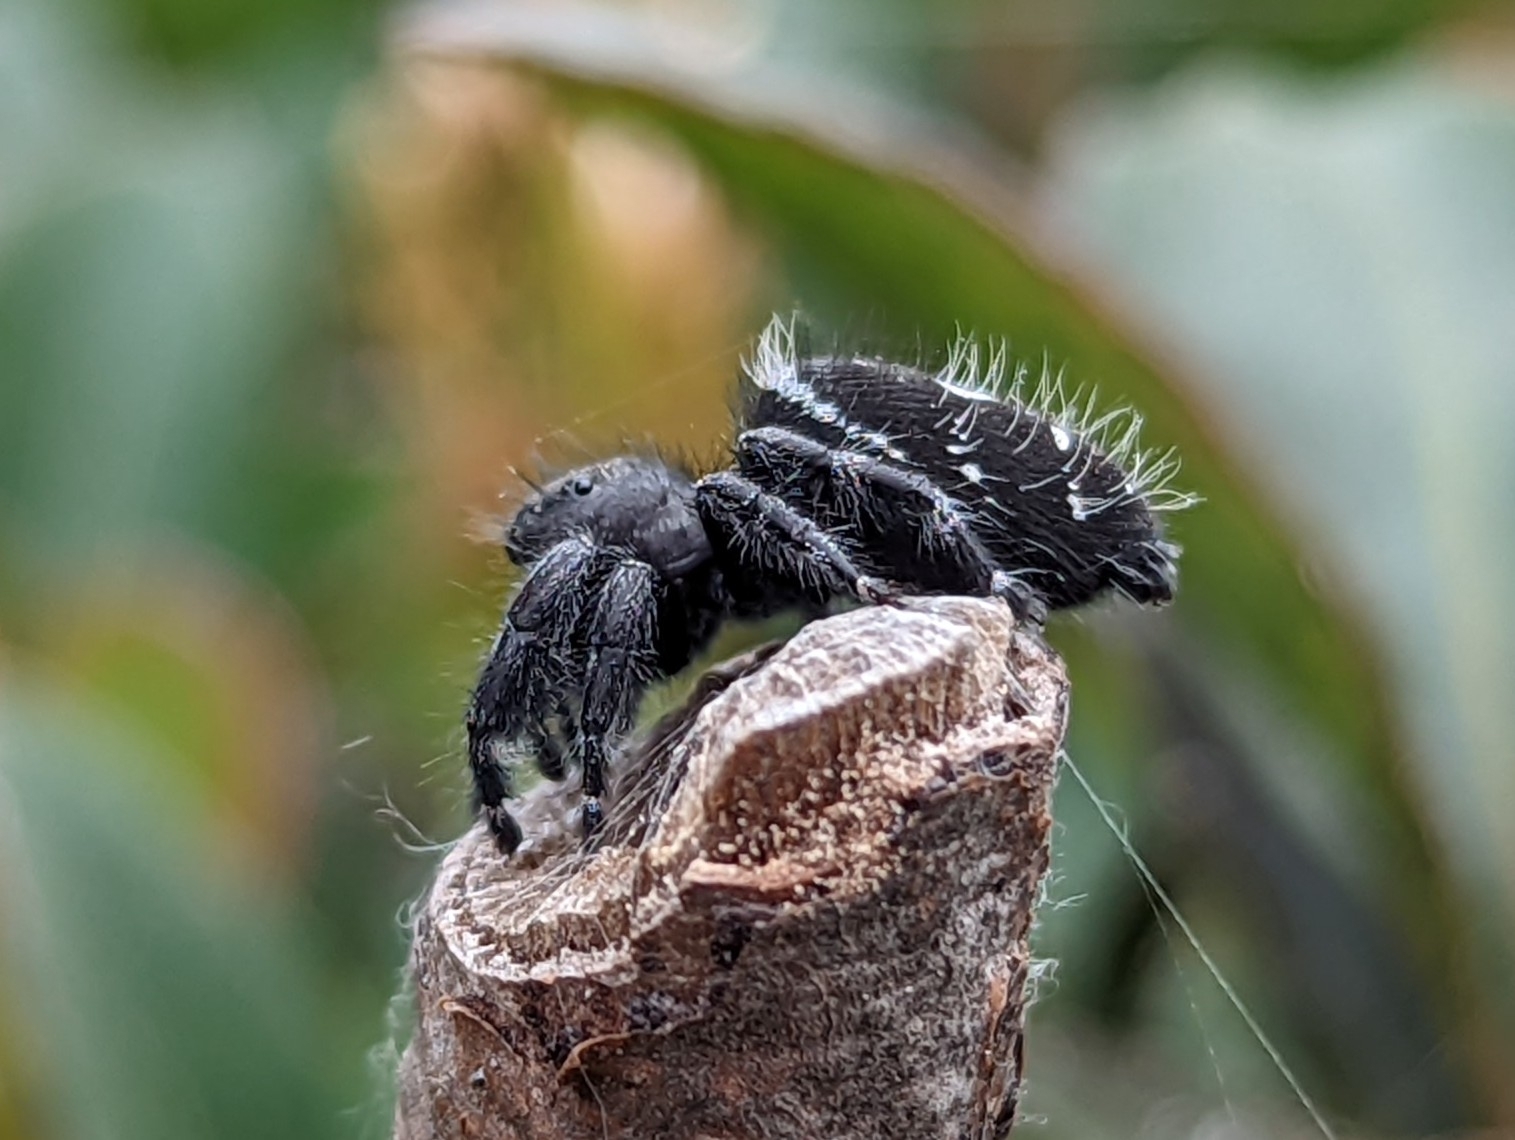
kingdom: Animalia
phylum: Arthropoda
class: Arachnida
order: Araneae
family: Salticidae
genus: Phidippus
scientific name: Phidippus audax
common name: Bold jumper
